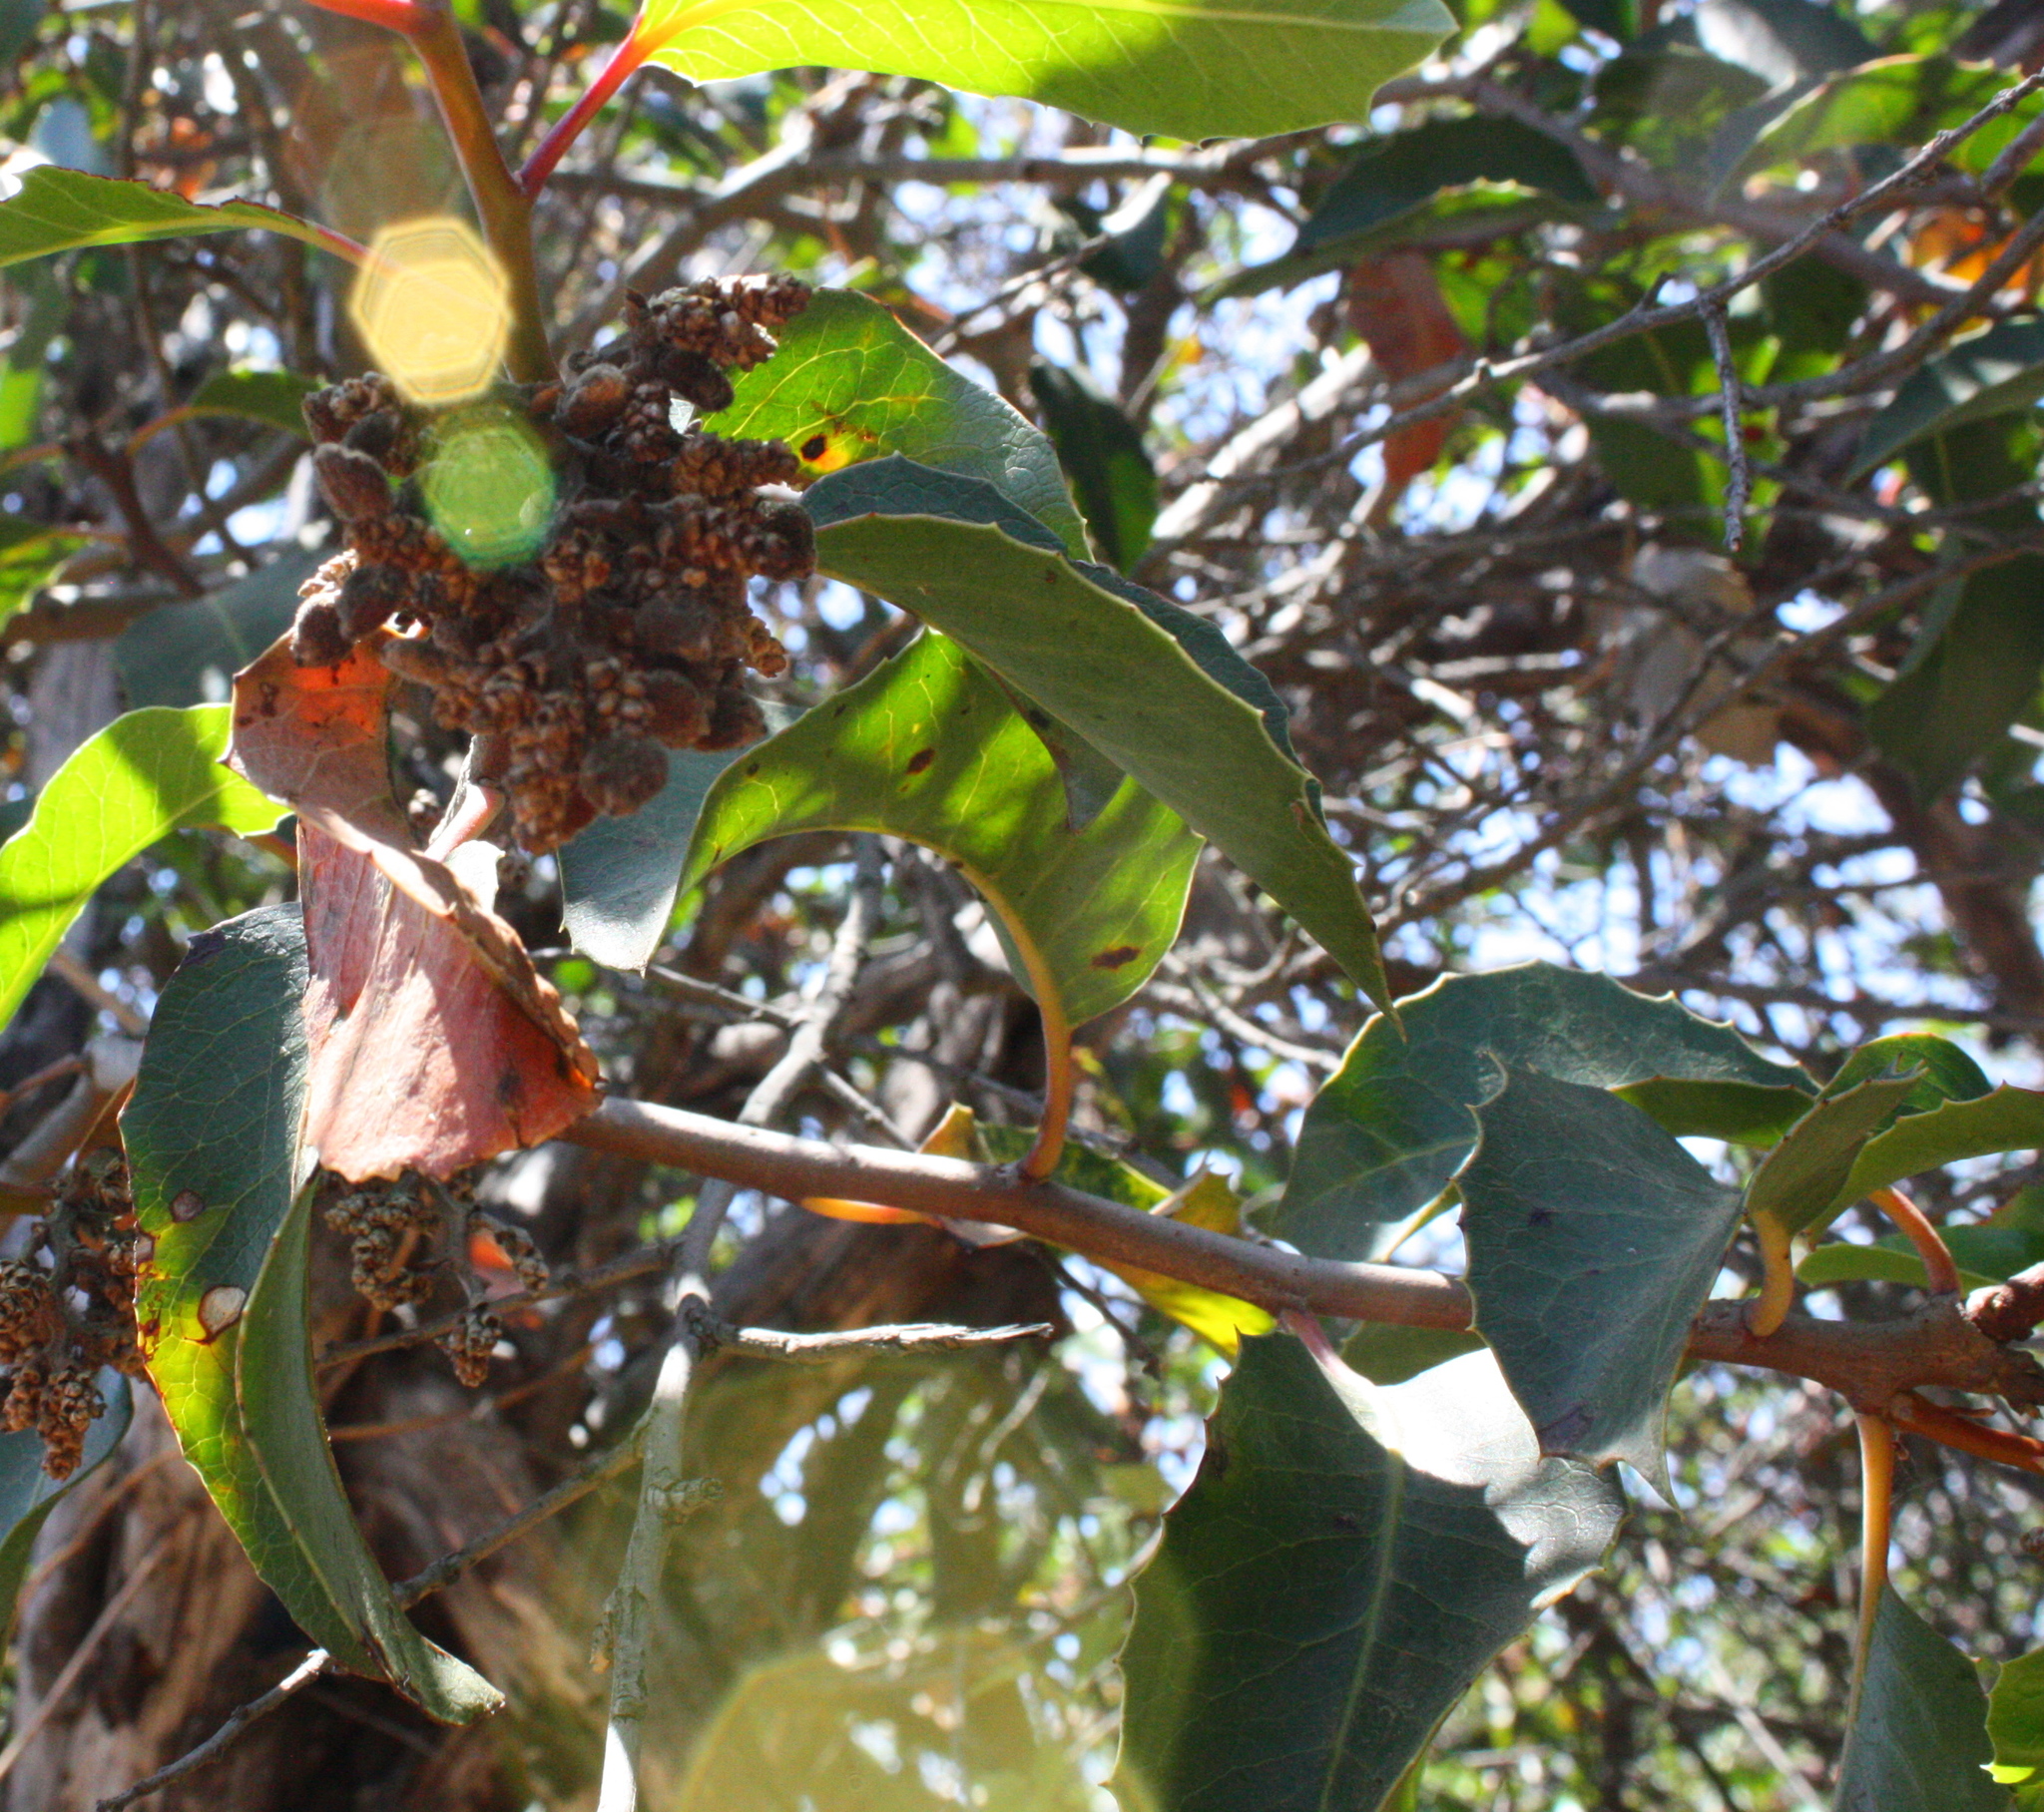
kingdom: Plantae
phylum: Tracheophyta
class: Magnoliopsida
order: Sapindales
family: Anacardiaceae
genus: Rhus
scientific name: Rhus ovata
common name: Sugar sumac
